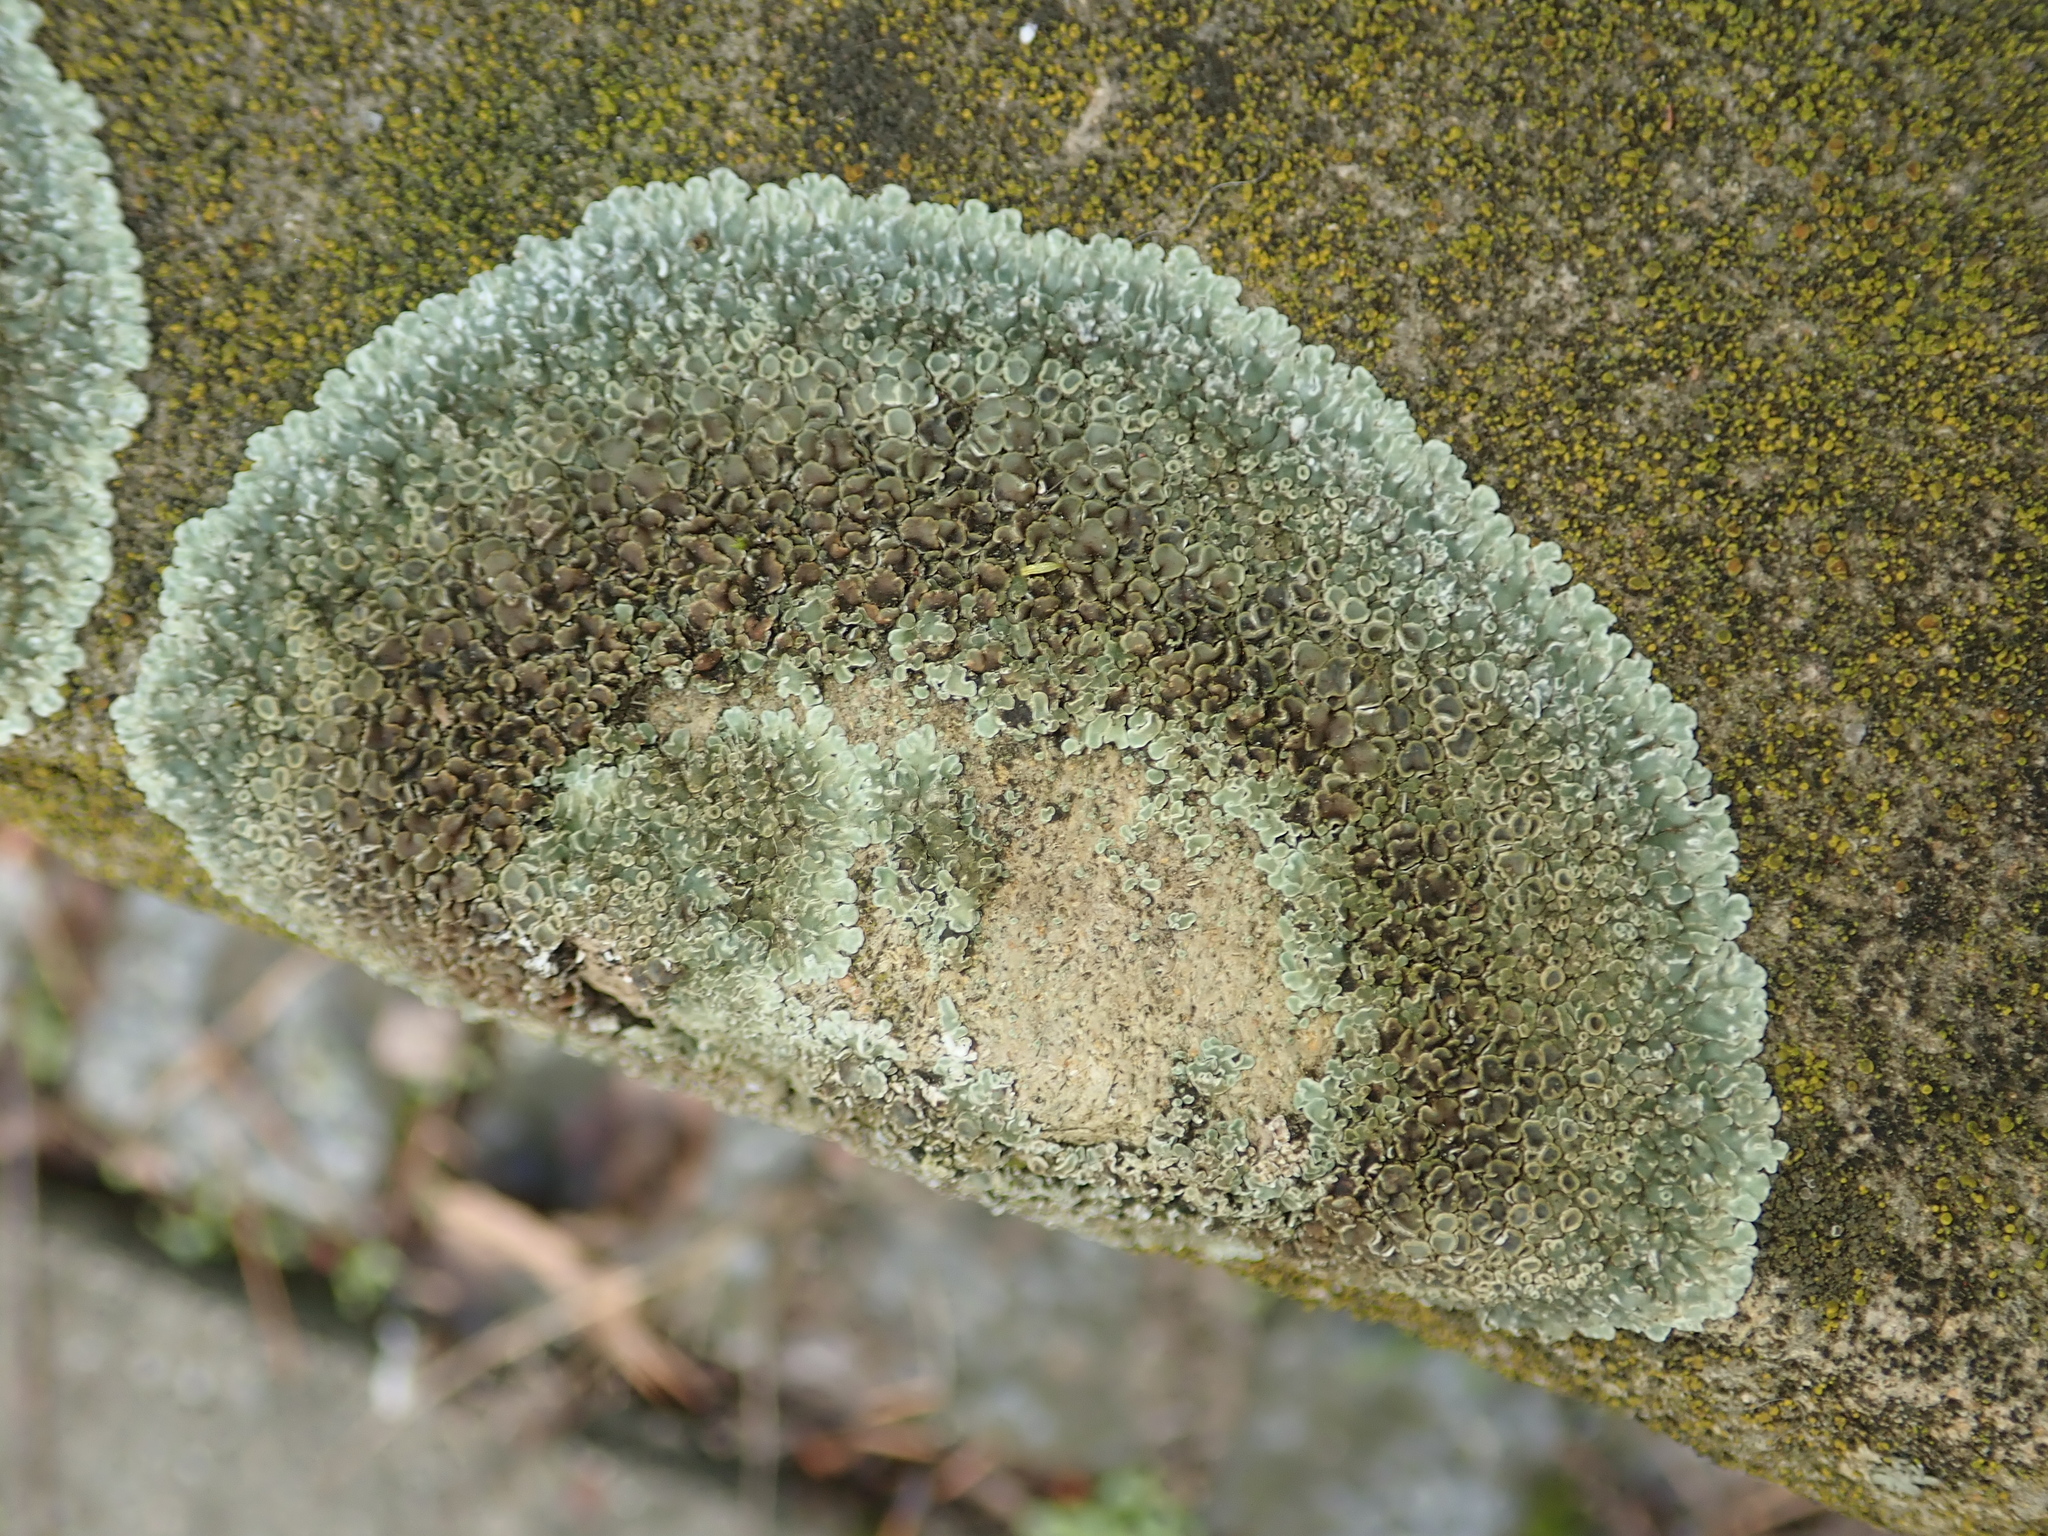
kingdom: Fungi
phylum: Ascomycota
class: Lecanoromycetes
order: Lecanorales
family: Lecanoraceae
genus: Protoparmeliopsis
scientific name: Protoparmeliopsis muralis
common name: Stonewall rim lichen
